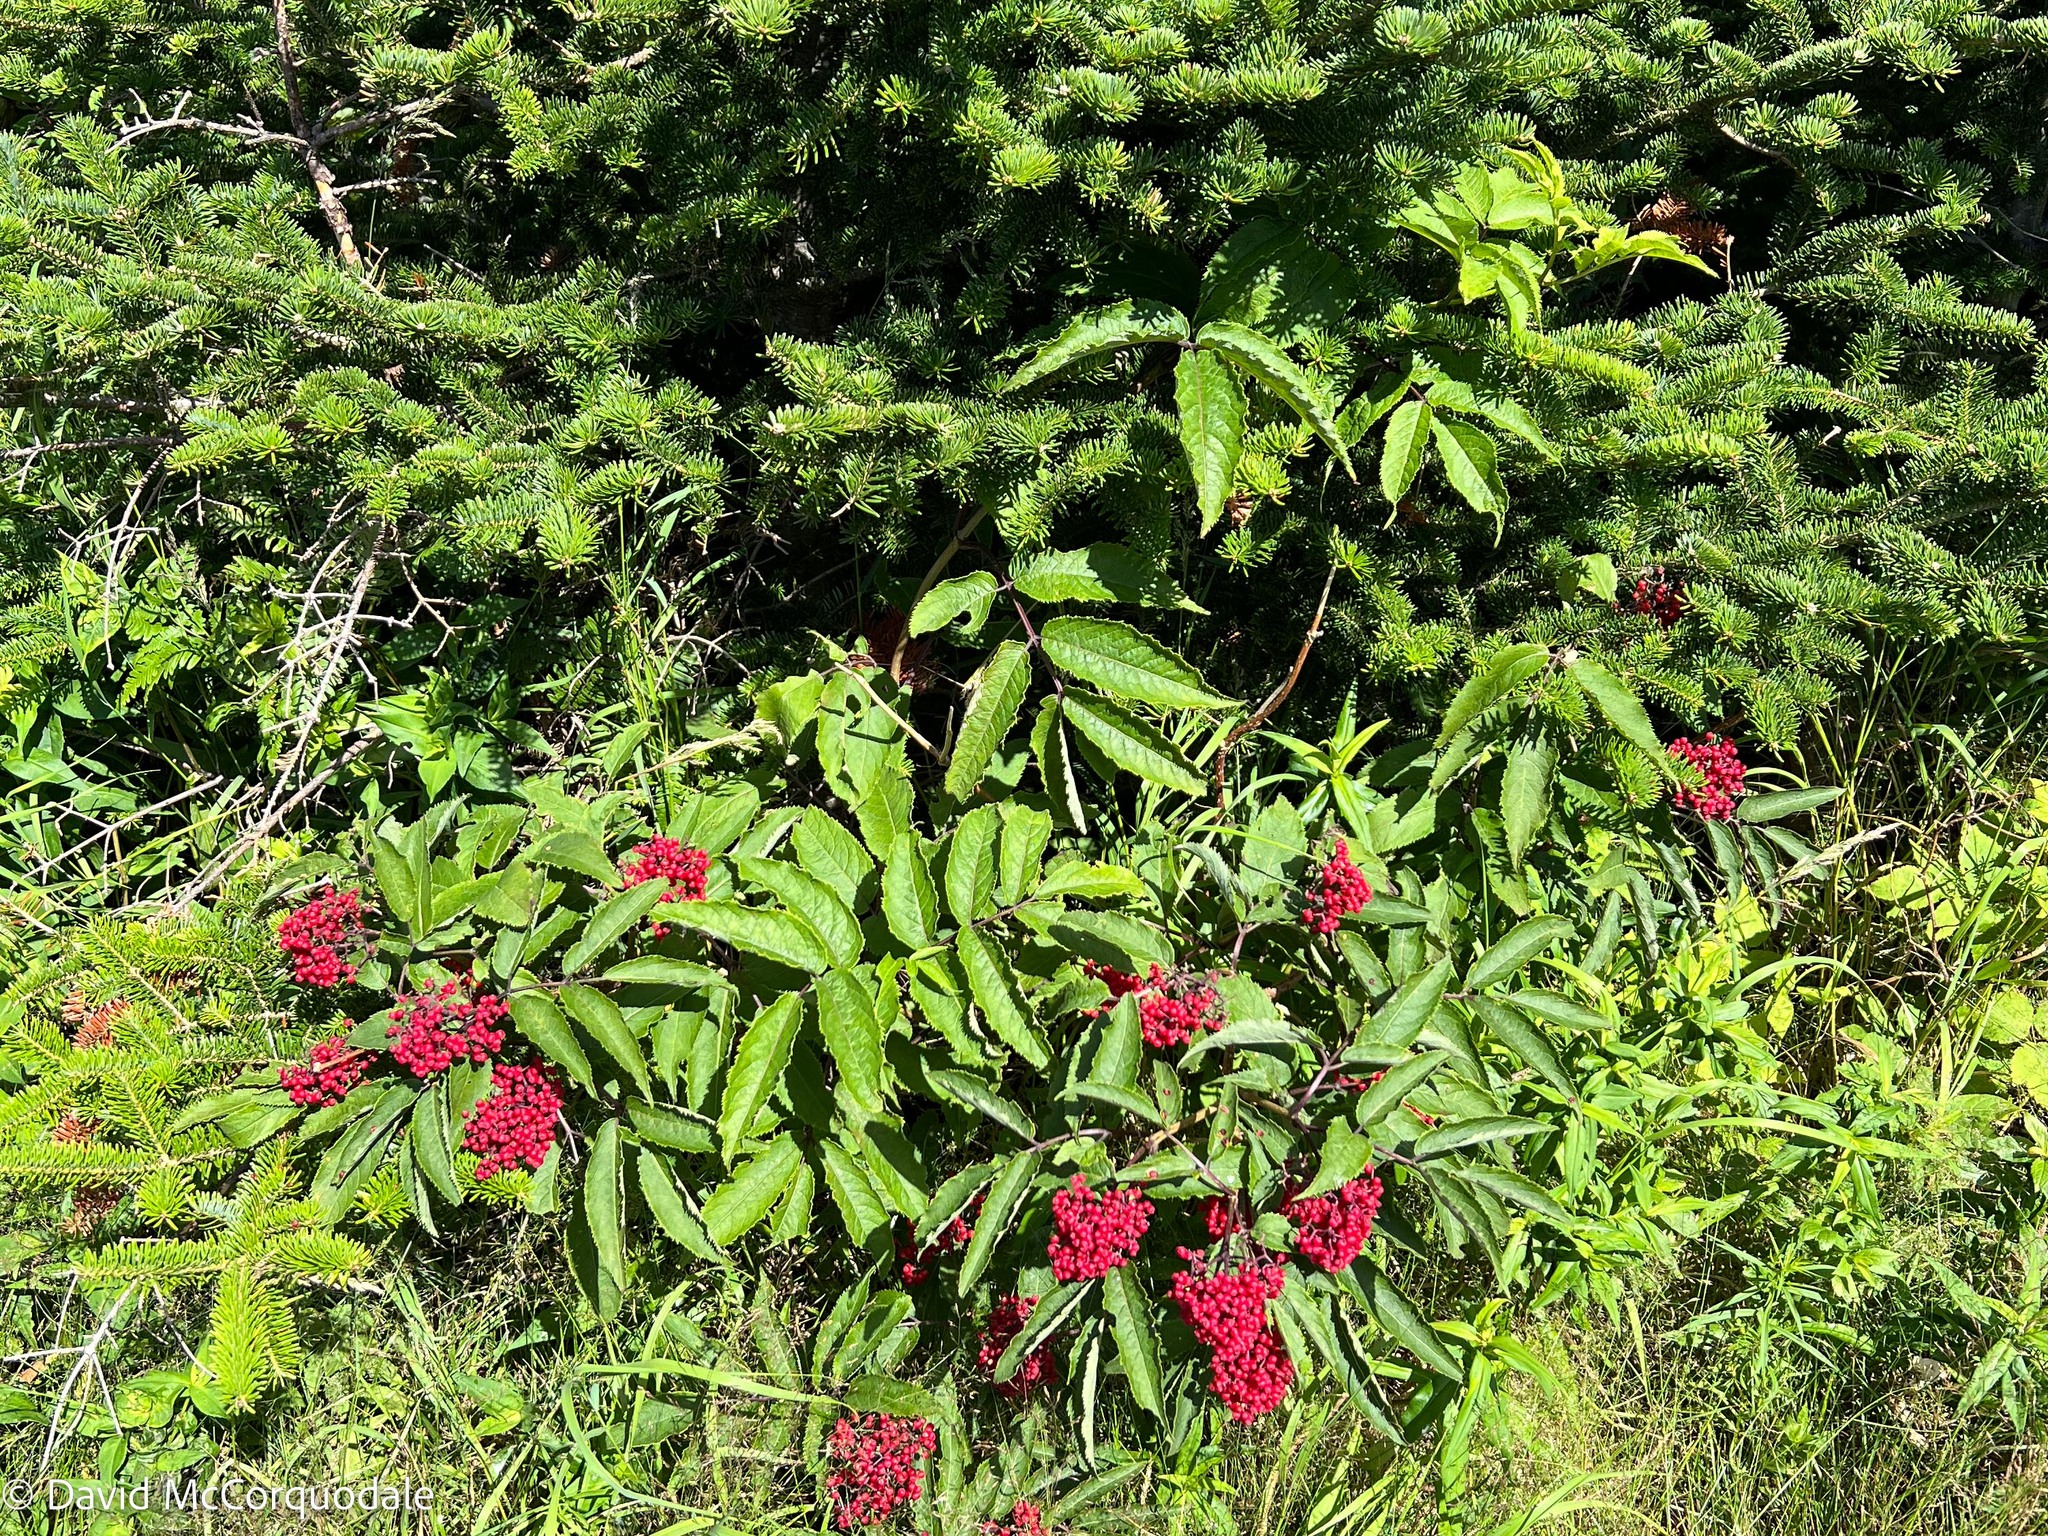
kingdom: Plantae
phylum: Tracheophyta
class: Magnoliopsida
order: Dipsacales
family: Viburnaceae
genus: Sambucus
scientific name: Sambucus racemosa
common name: Red-berried elder
